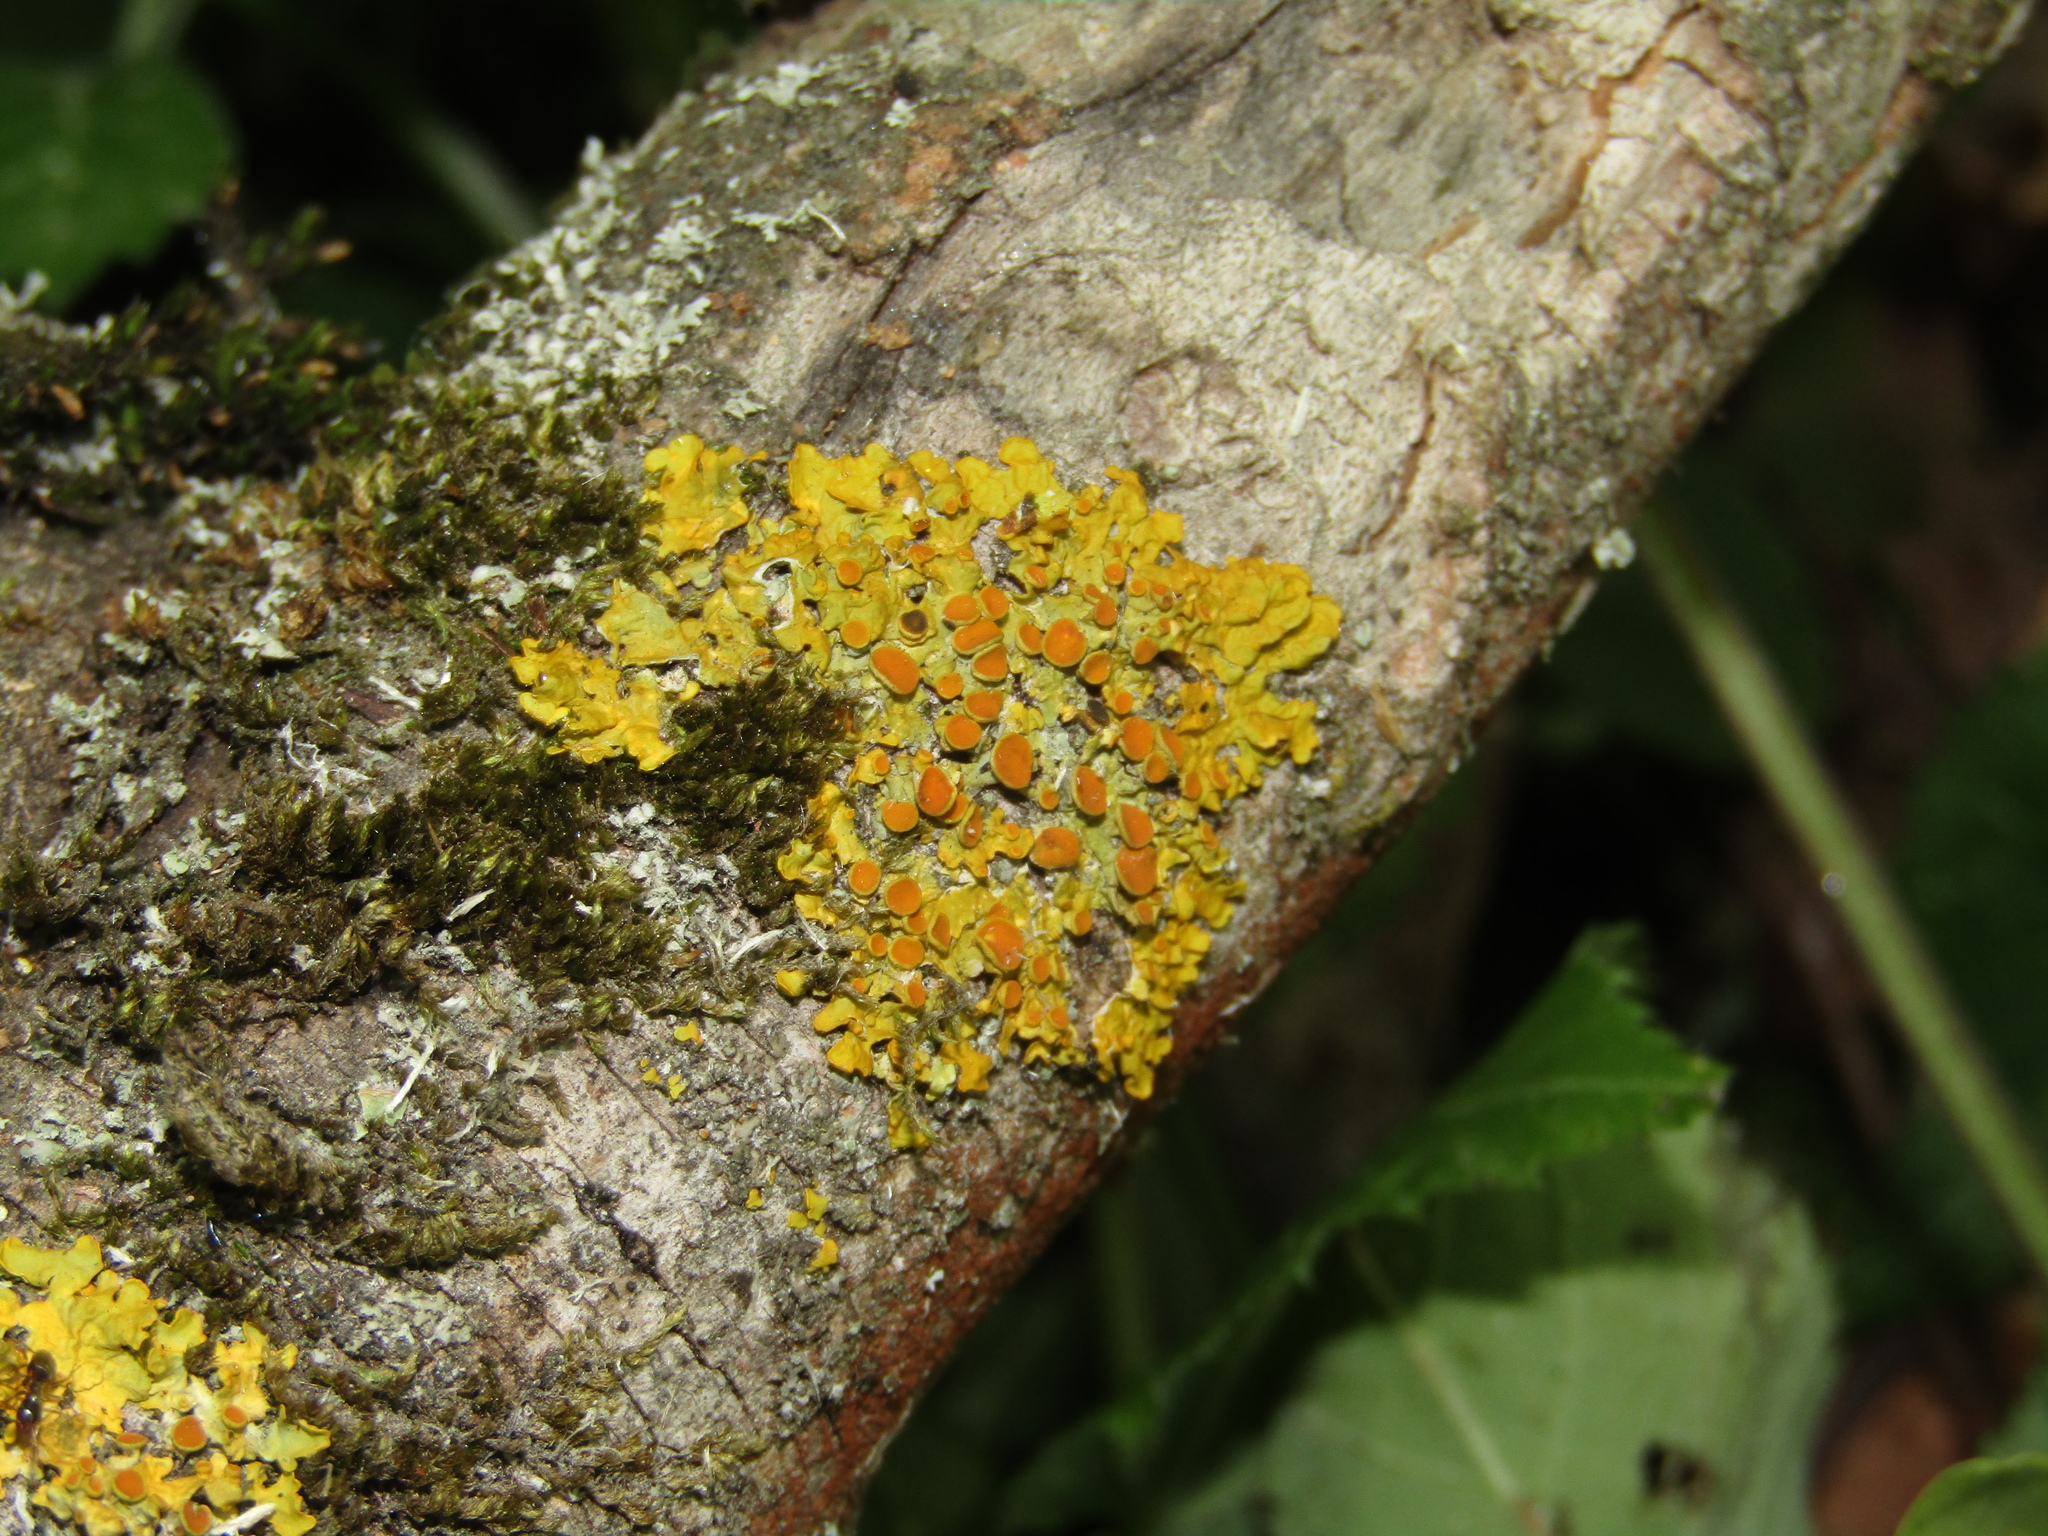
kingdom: Fungi
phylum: Ascomycota
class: Lecanoromycetes
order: Teloschistales
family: Teloschistaceae
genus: Xanthoria
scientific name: Xanthoria parietina
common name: Common orange lichen
